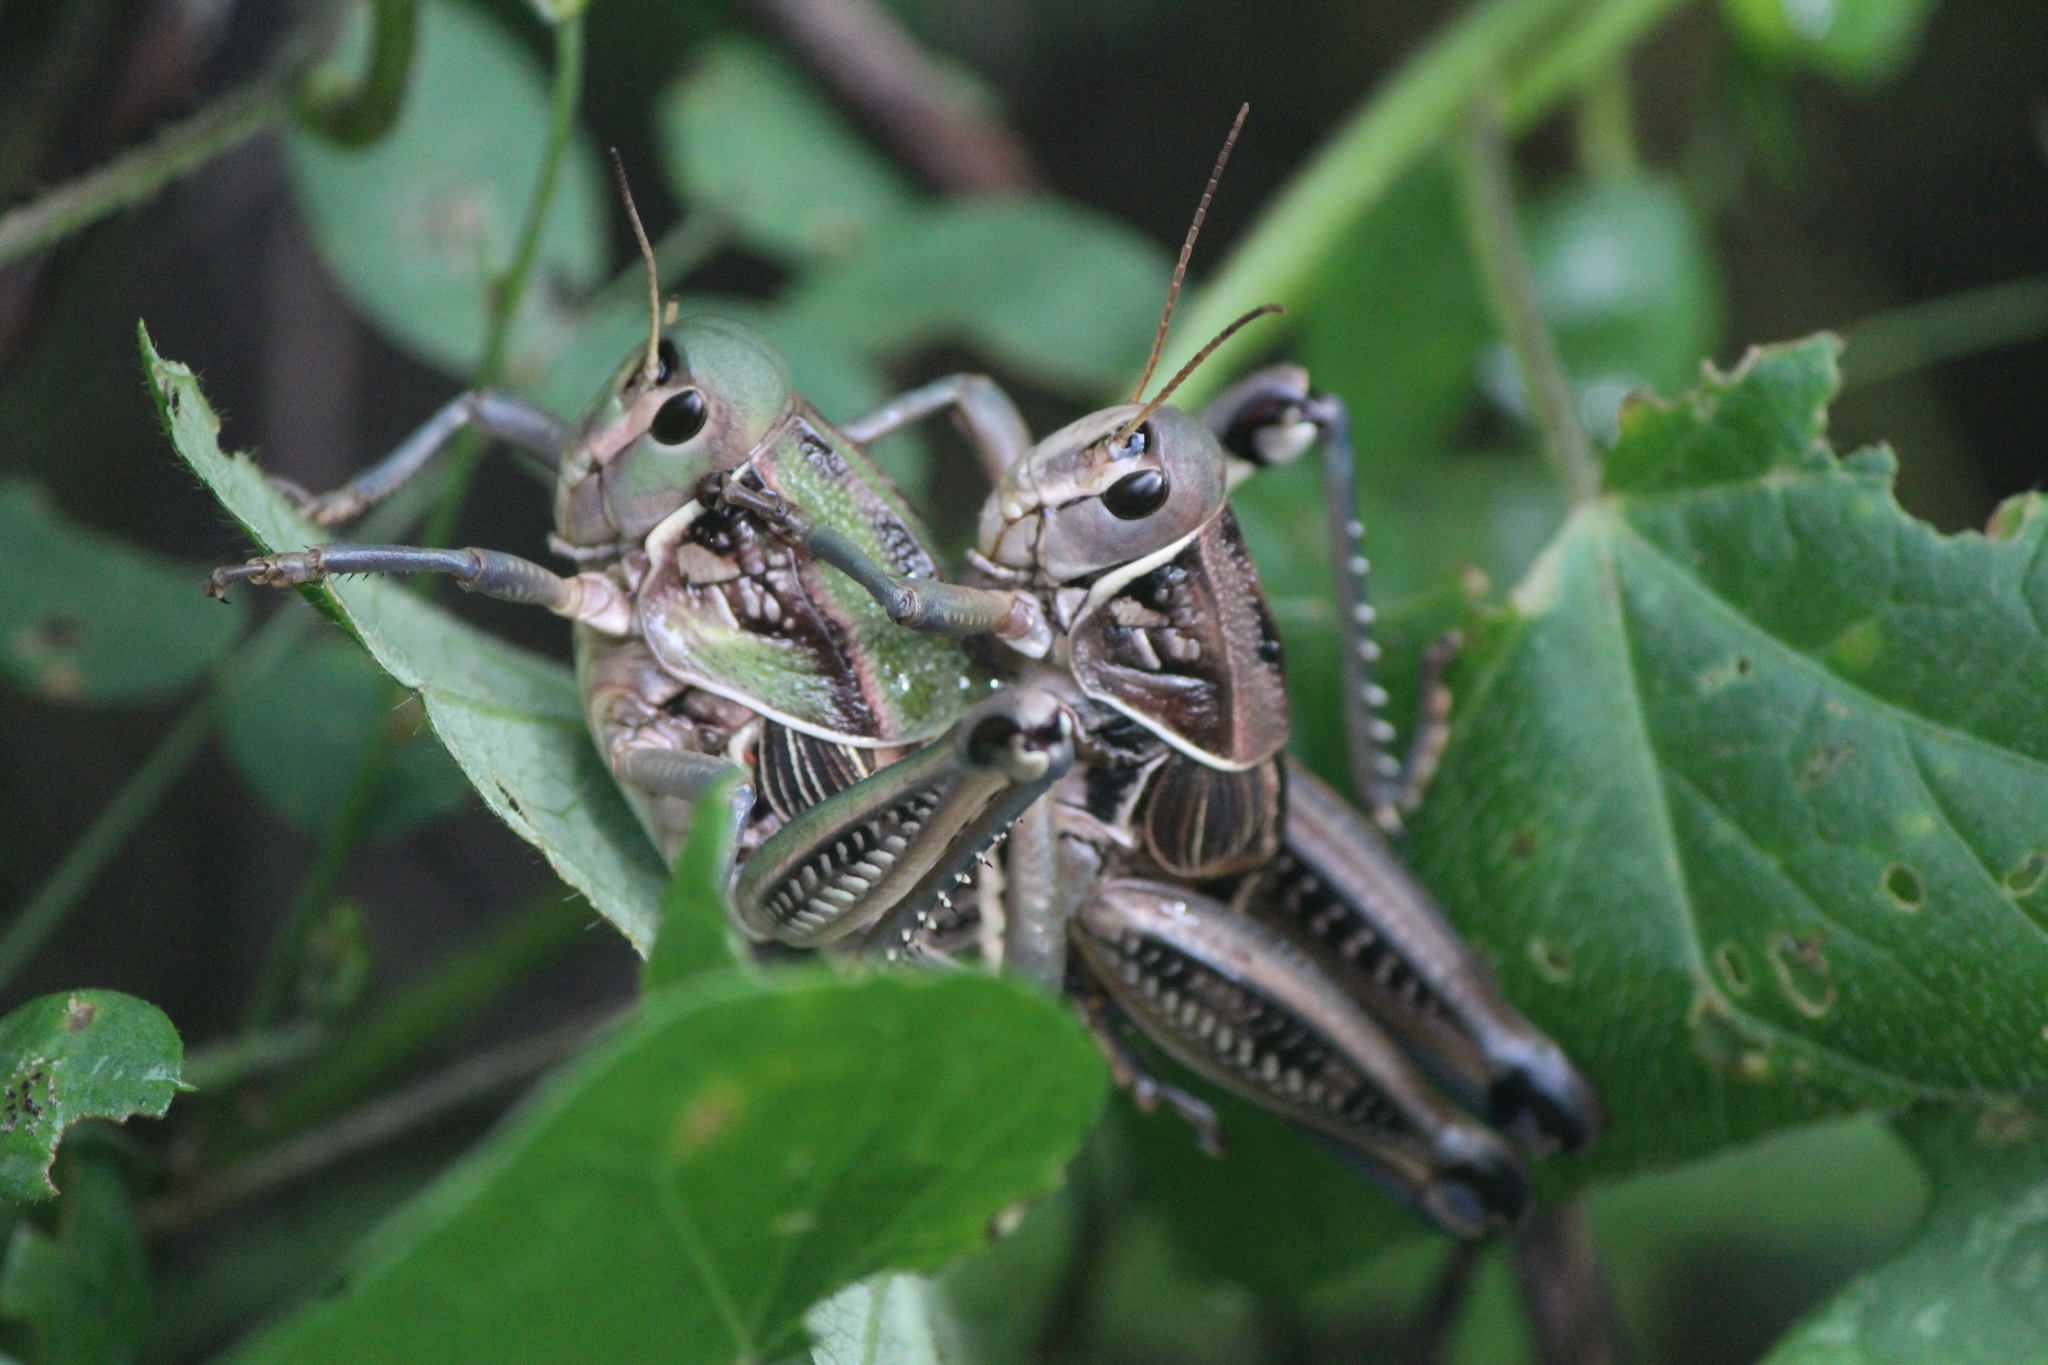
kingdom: Animalia
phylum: Arthropoda
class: Insecta
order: Orthoptera
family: Romaleidae
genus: Brachystola
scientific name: Brachystola mexicana
